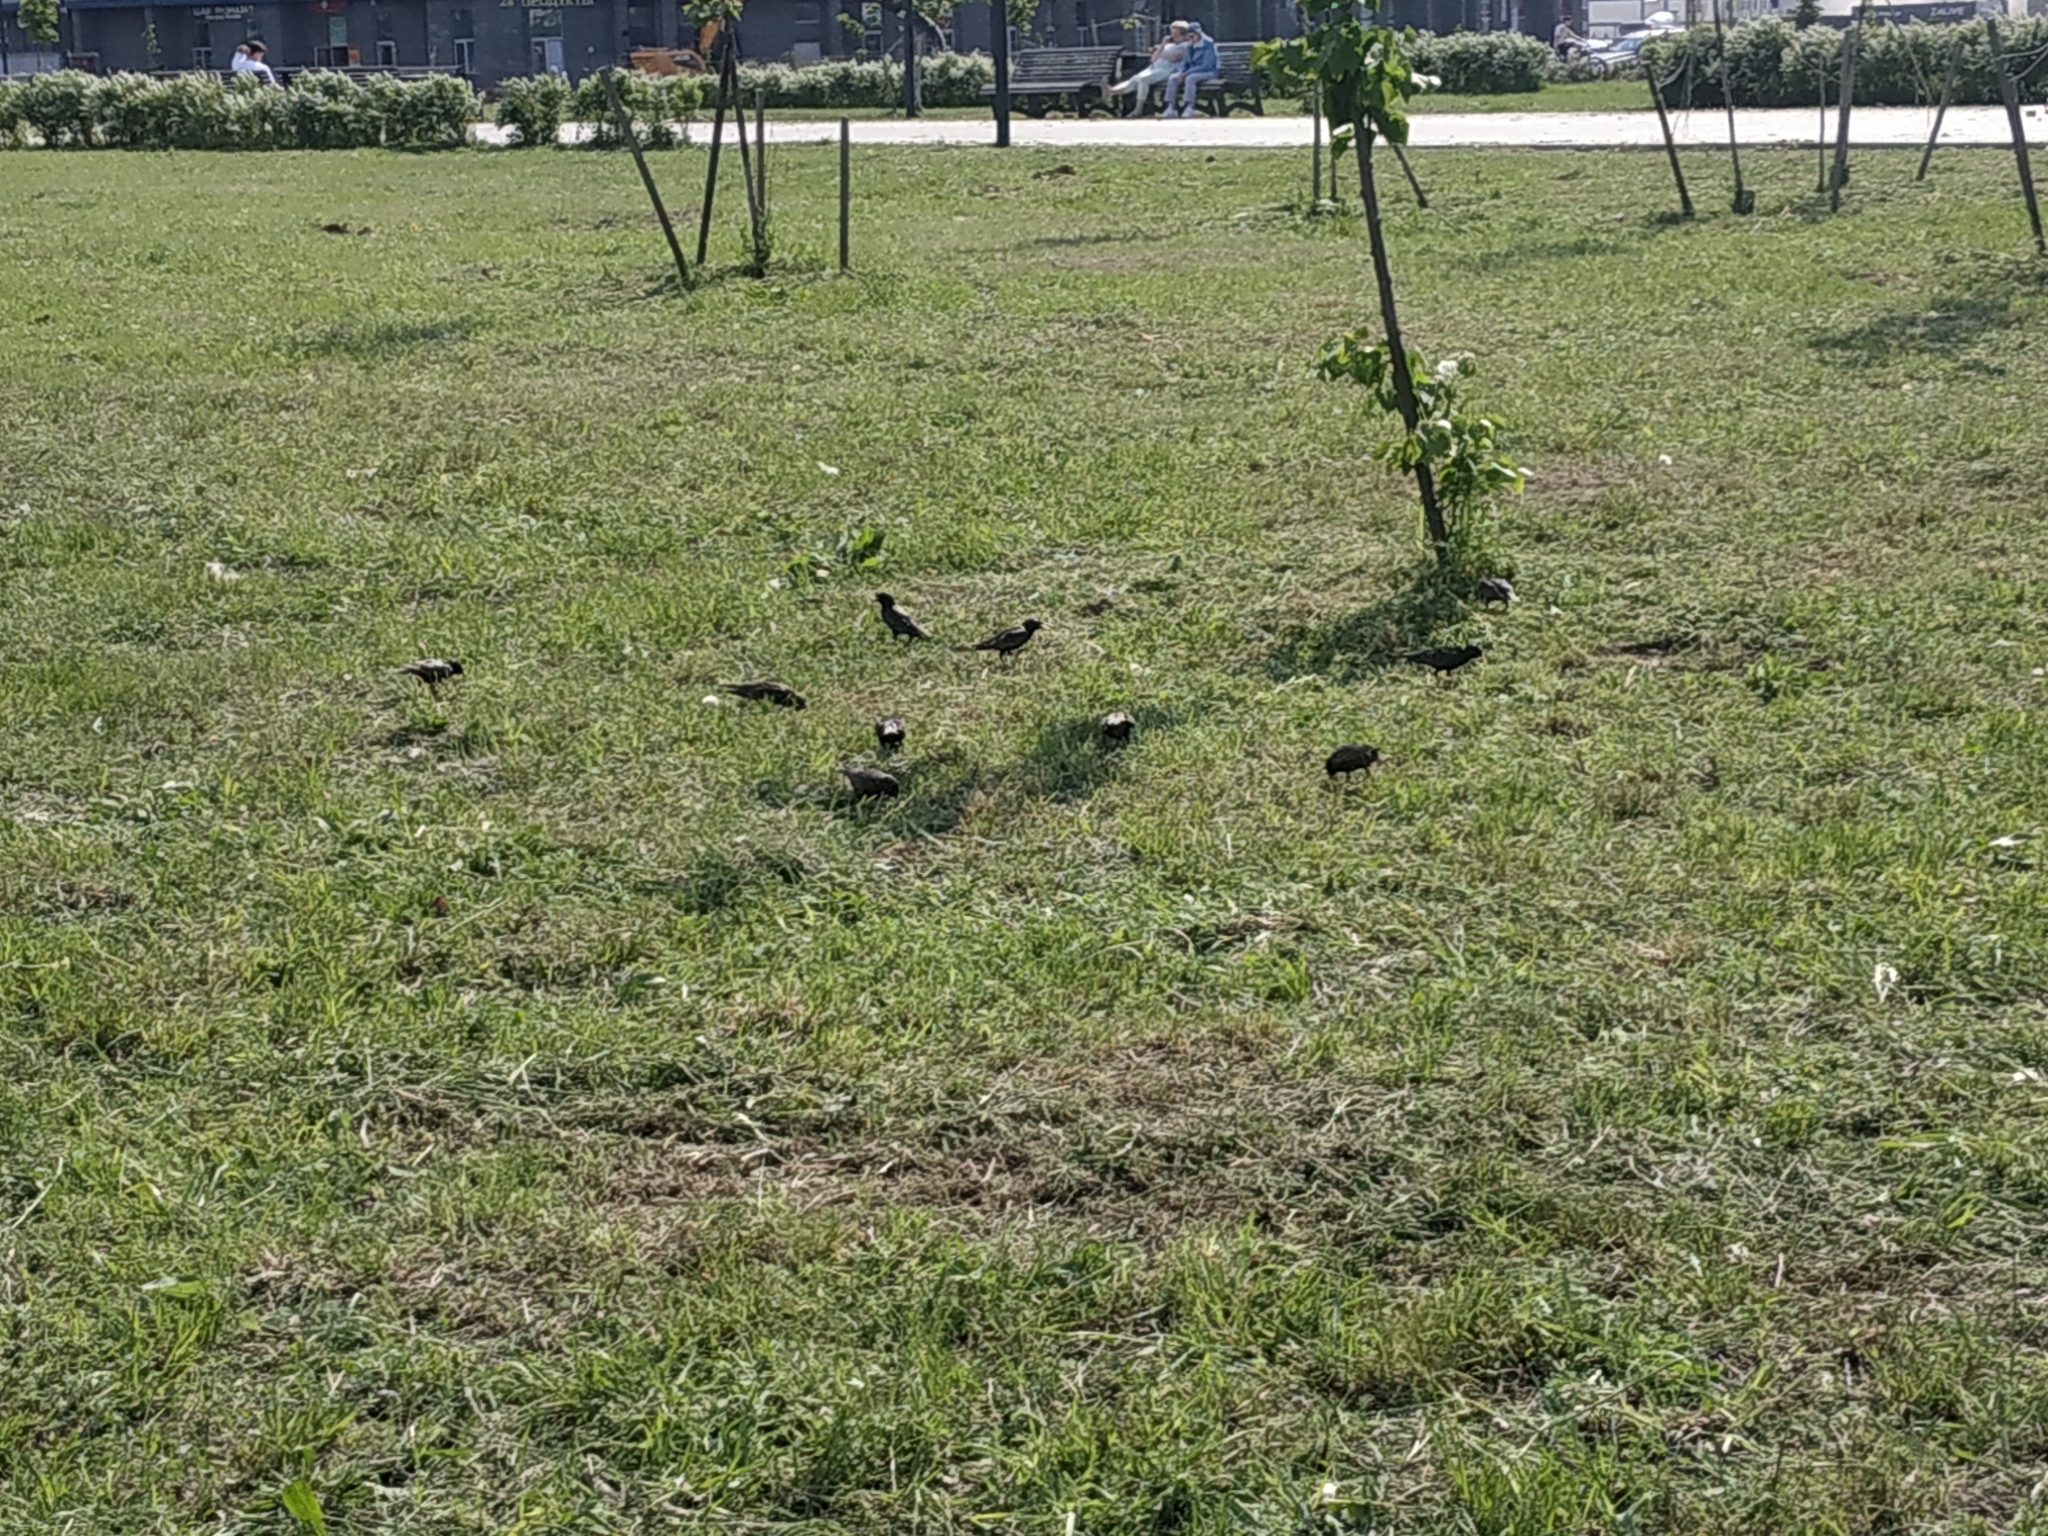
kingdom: Animalia
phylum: Chordata
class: Aves
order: Passeriformes
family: Sturnidae
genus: Sturnus
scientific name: Sturnus vulgaris
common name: Common starling
